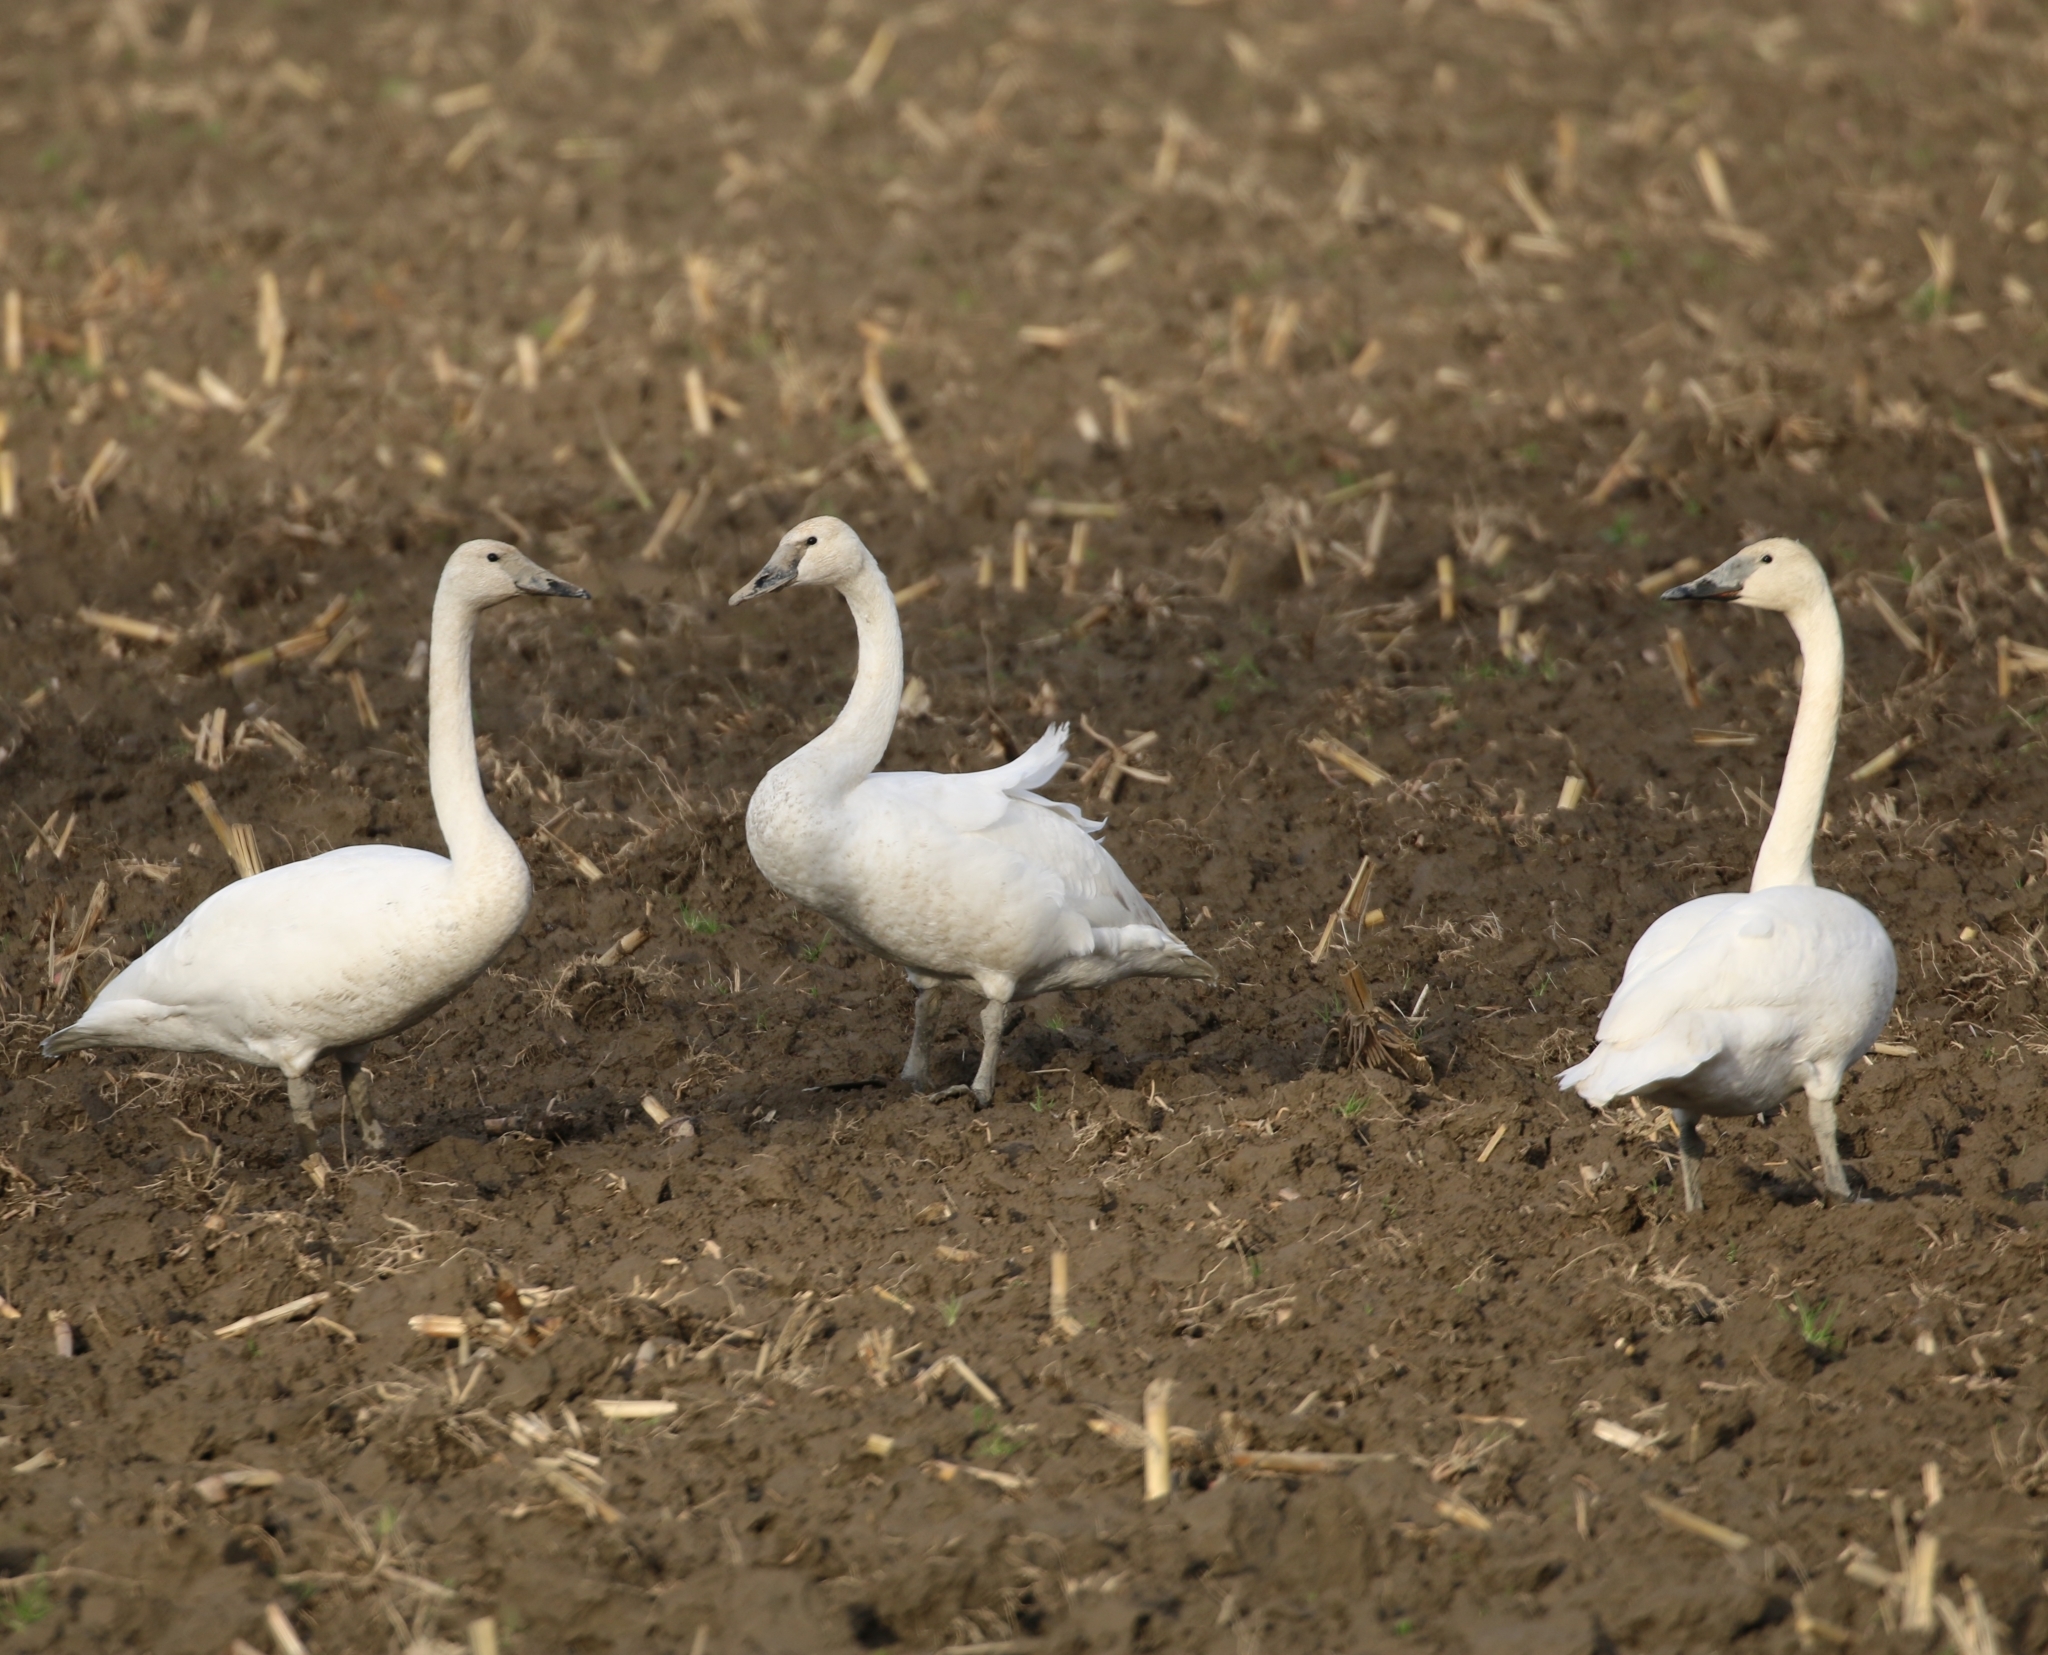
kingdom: Animalia
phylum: Chordata
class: Aves
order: Anseriformes
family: Anatidae
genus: Cygnus
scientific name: Cygnus buccinator
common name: Trumpeter swan
